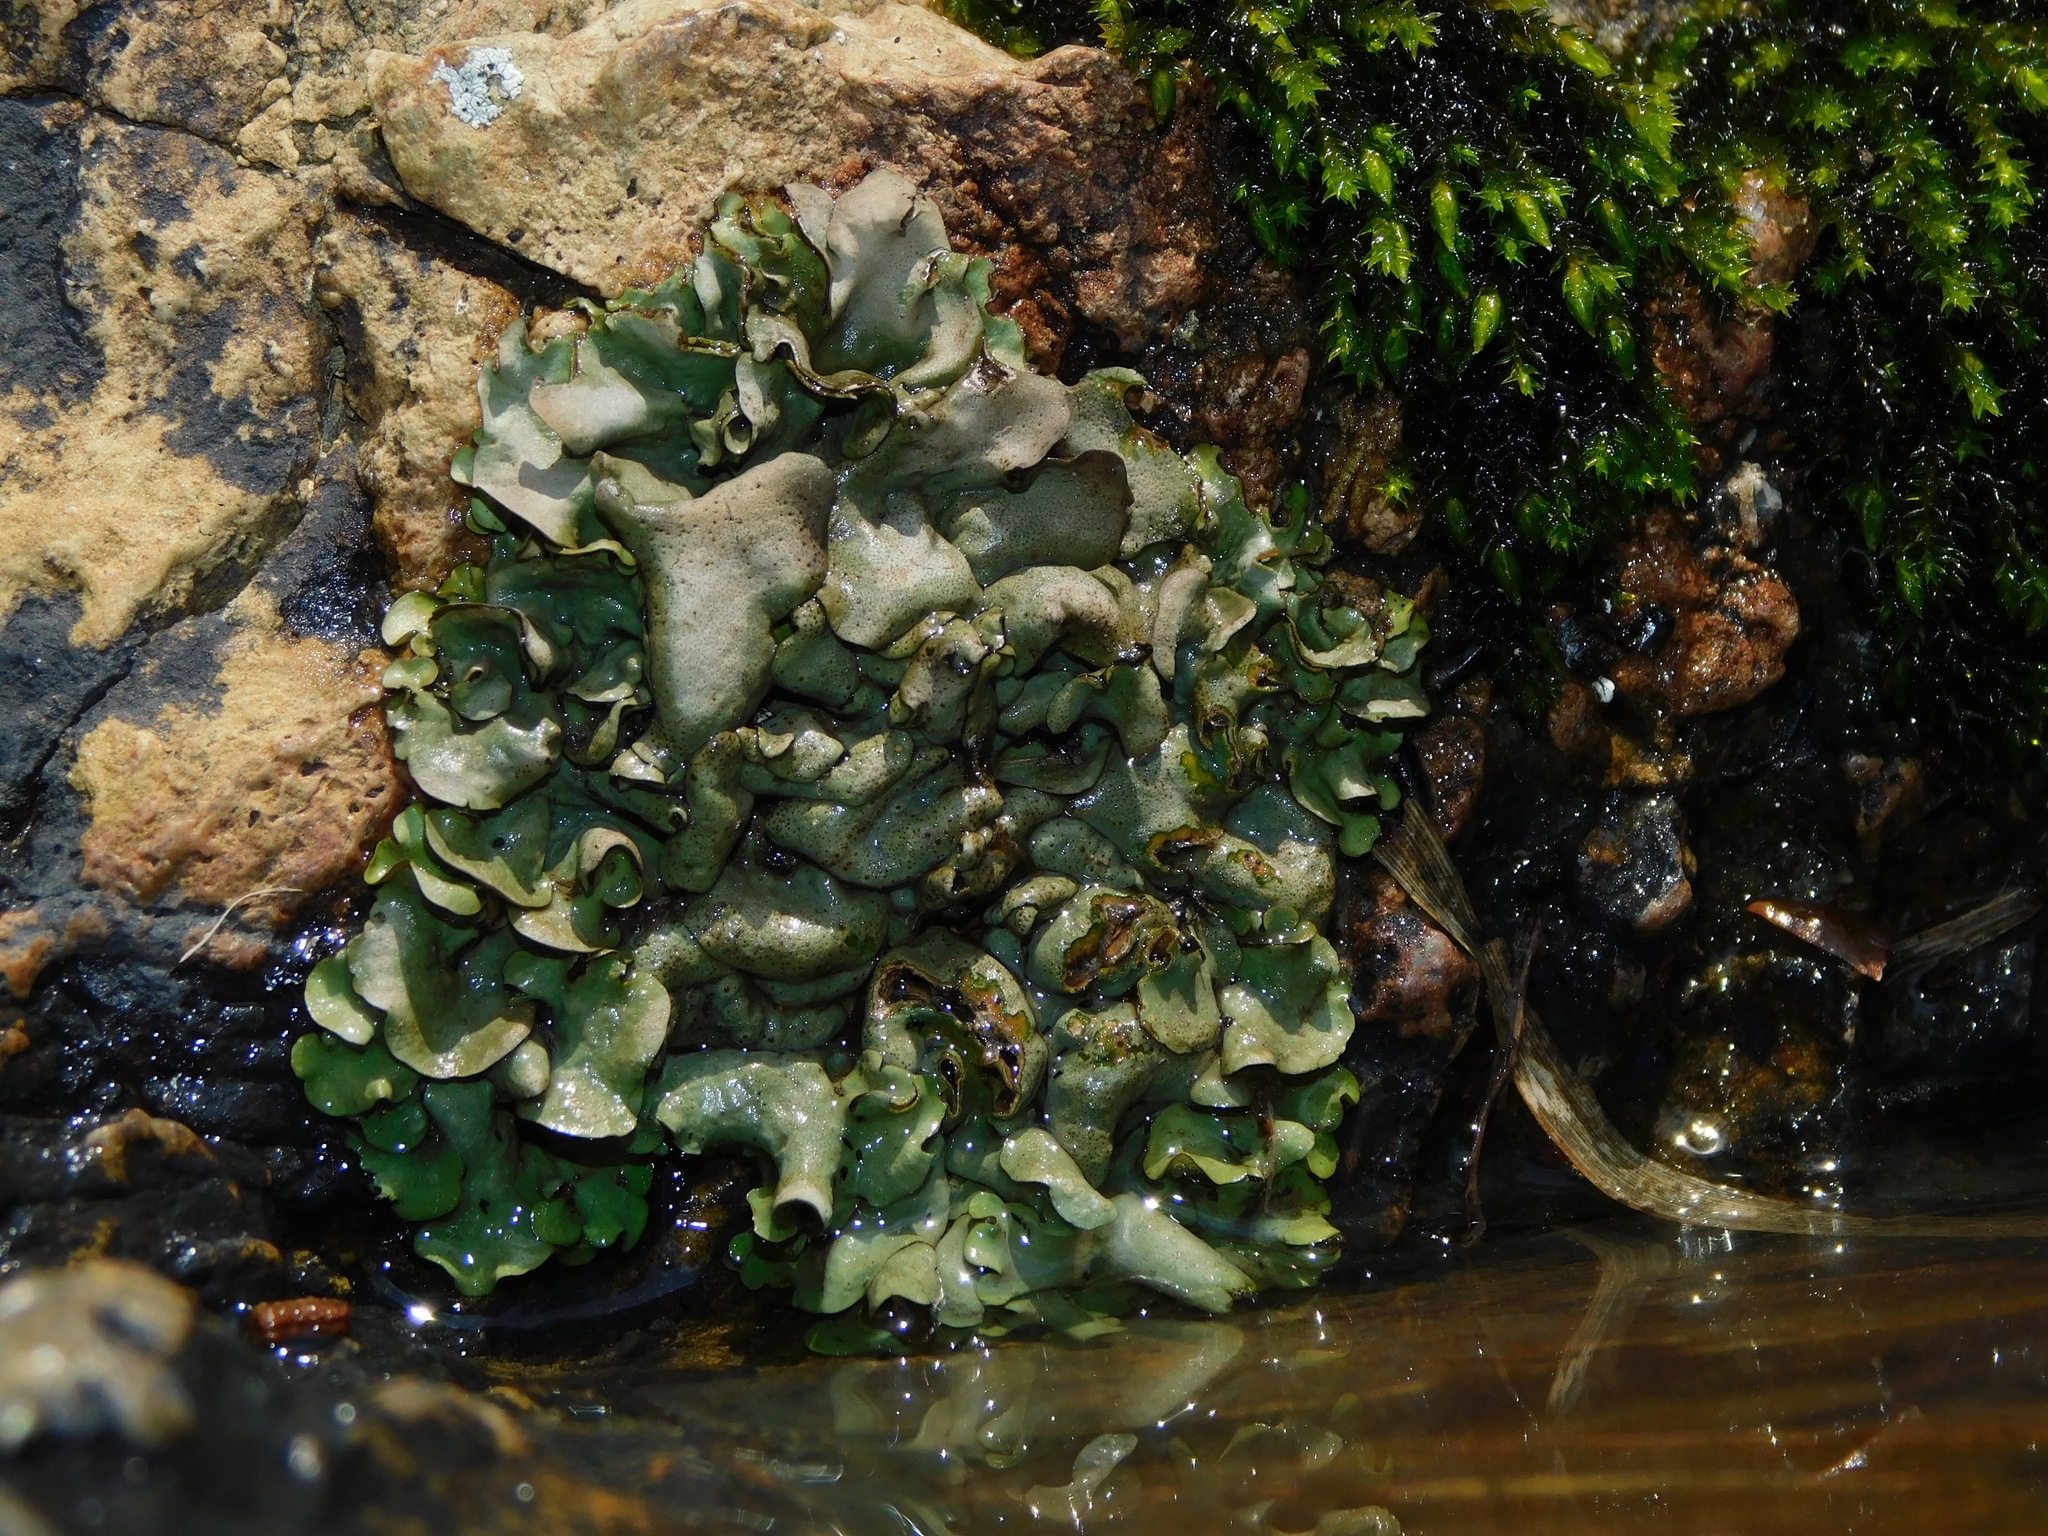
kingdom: Fungi
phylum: Ascomycota
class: Eurotiomycetes
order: Verrucariales
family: Verrucariaceae
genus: Dermatocarpon
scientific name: Dermatocarpon arenosaxi
